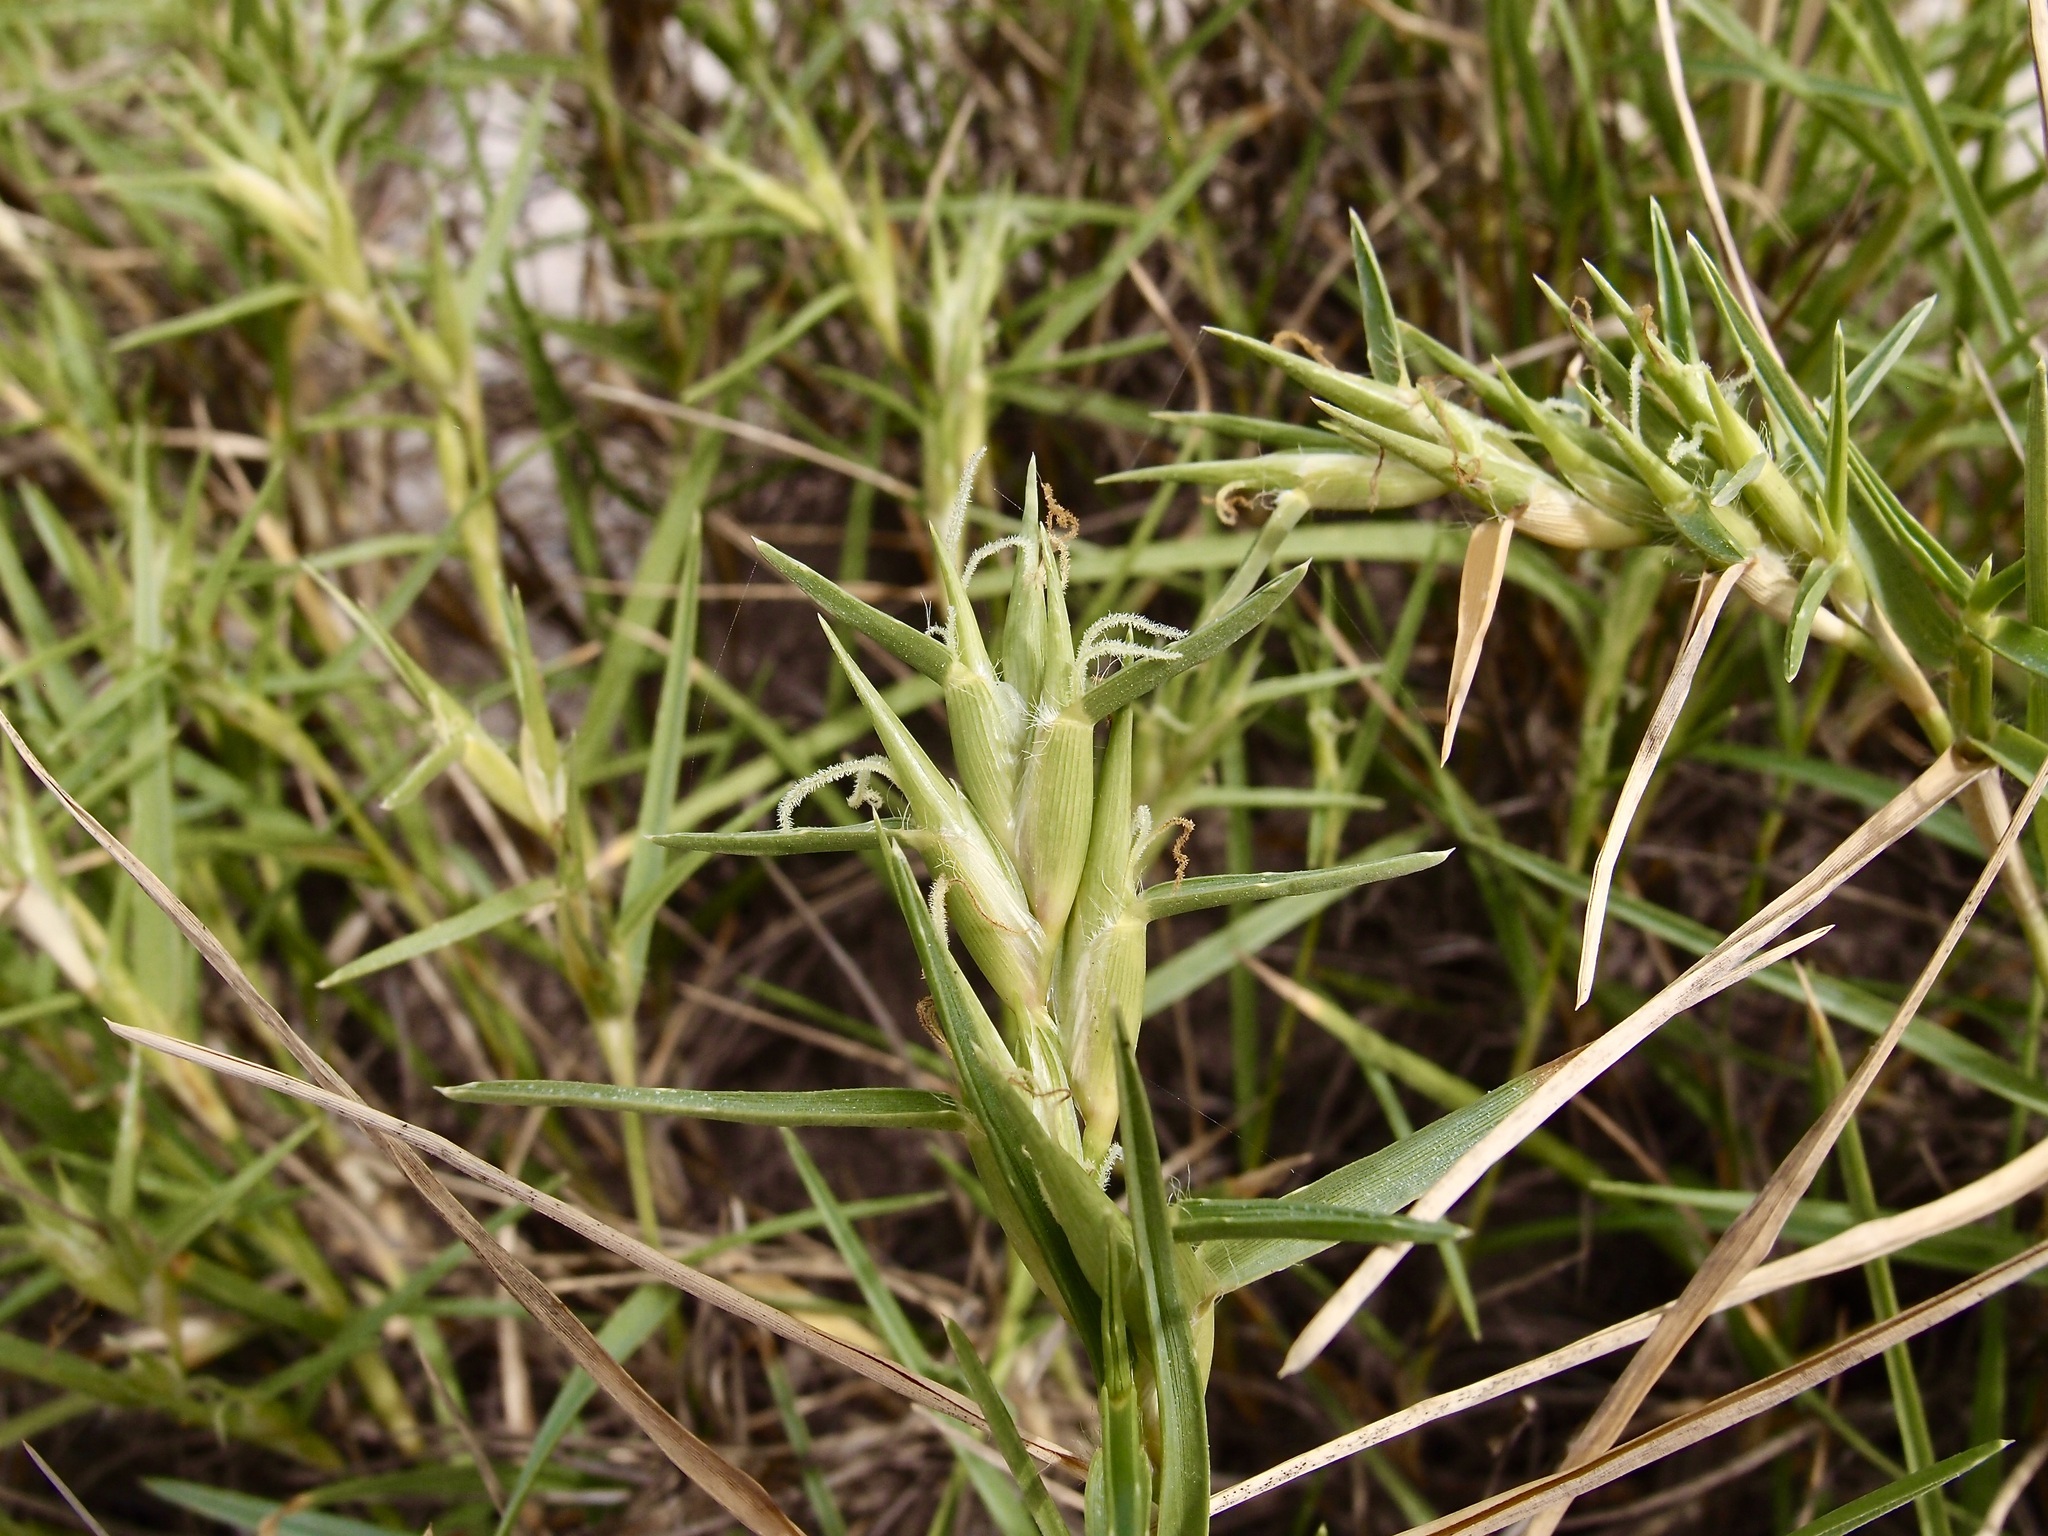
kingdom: Plantae
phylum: Tracheophyta
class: Liliopsida
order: Poales
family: Poaceae
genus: Jouvea
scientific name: Jouvea pilosa
